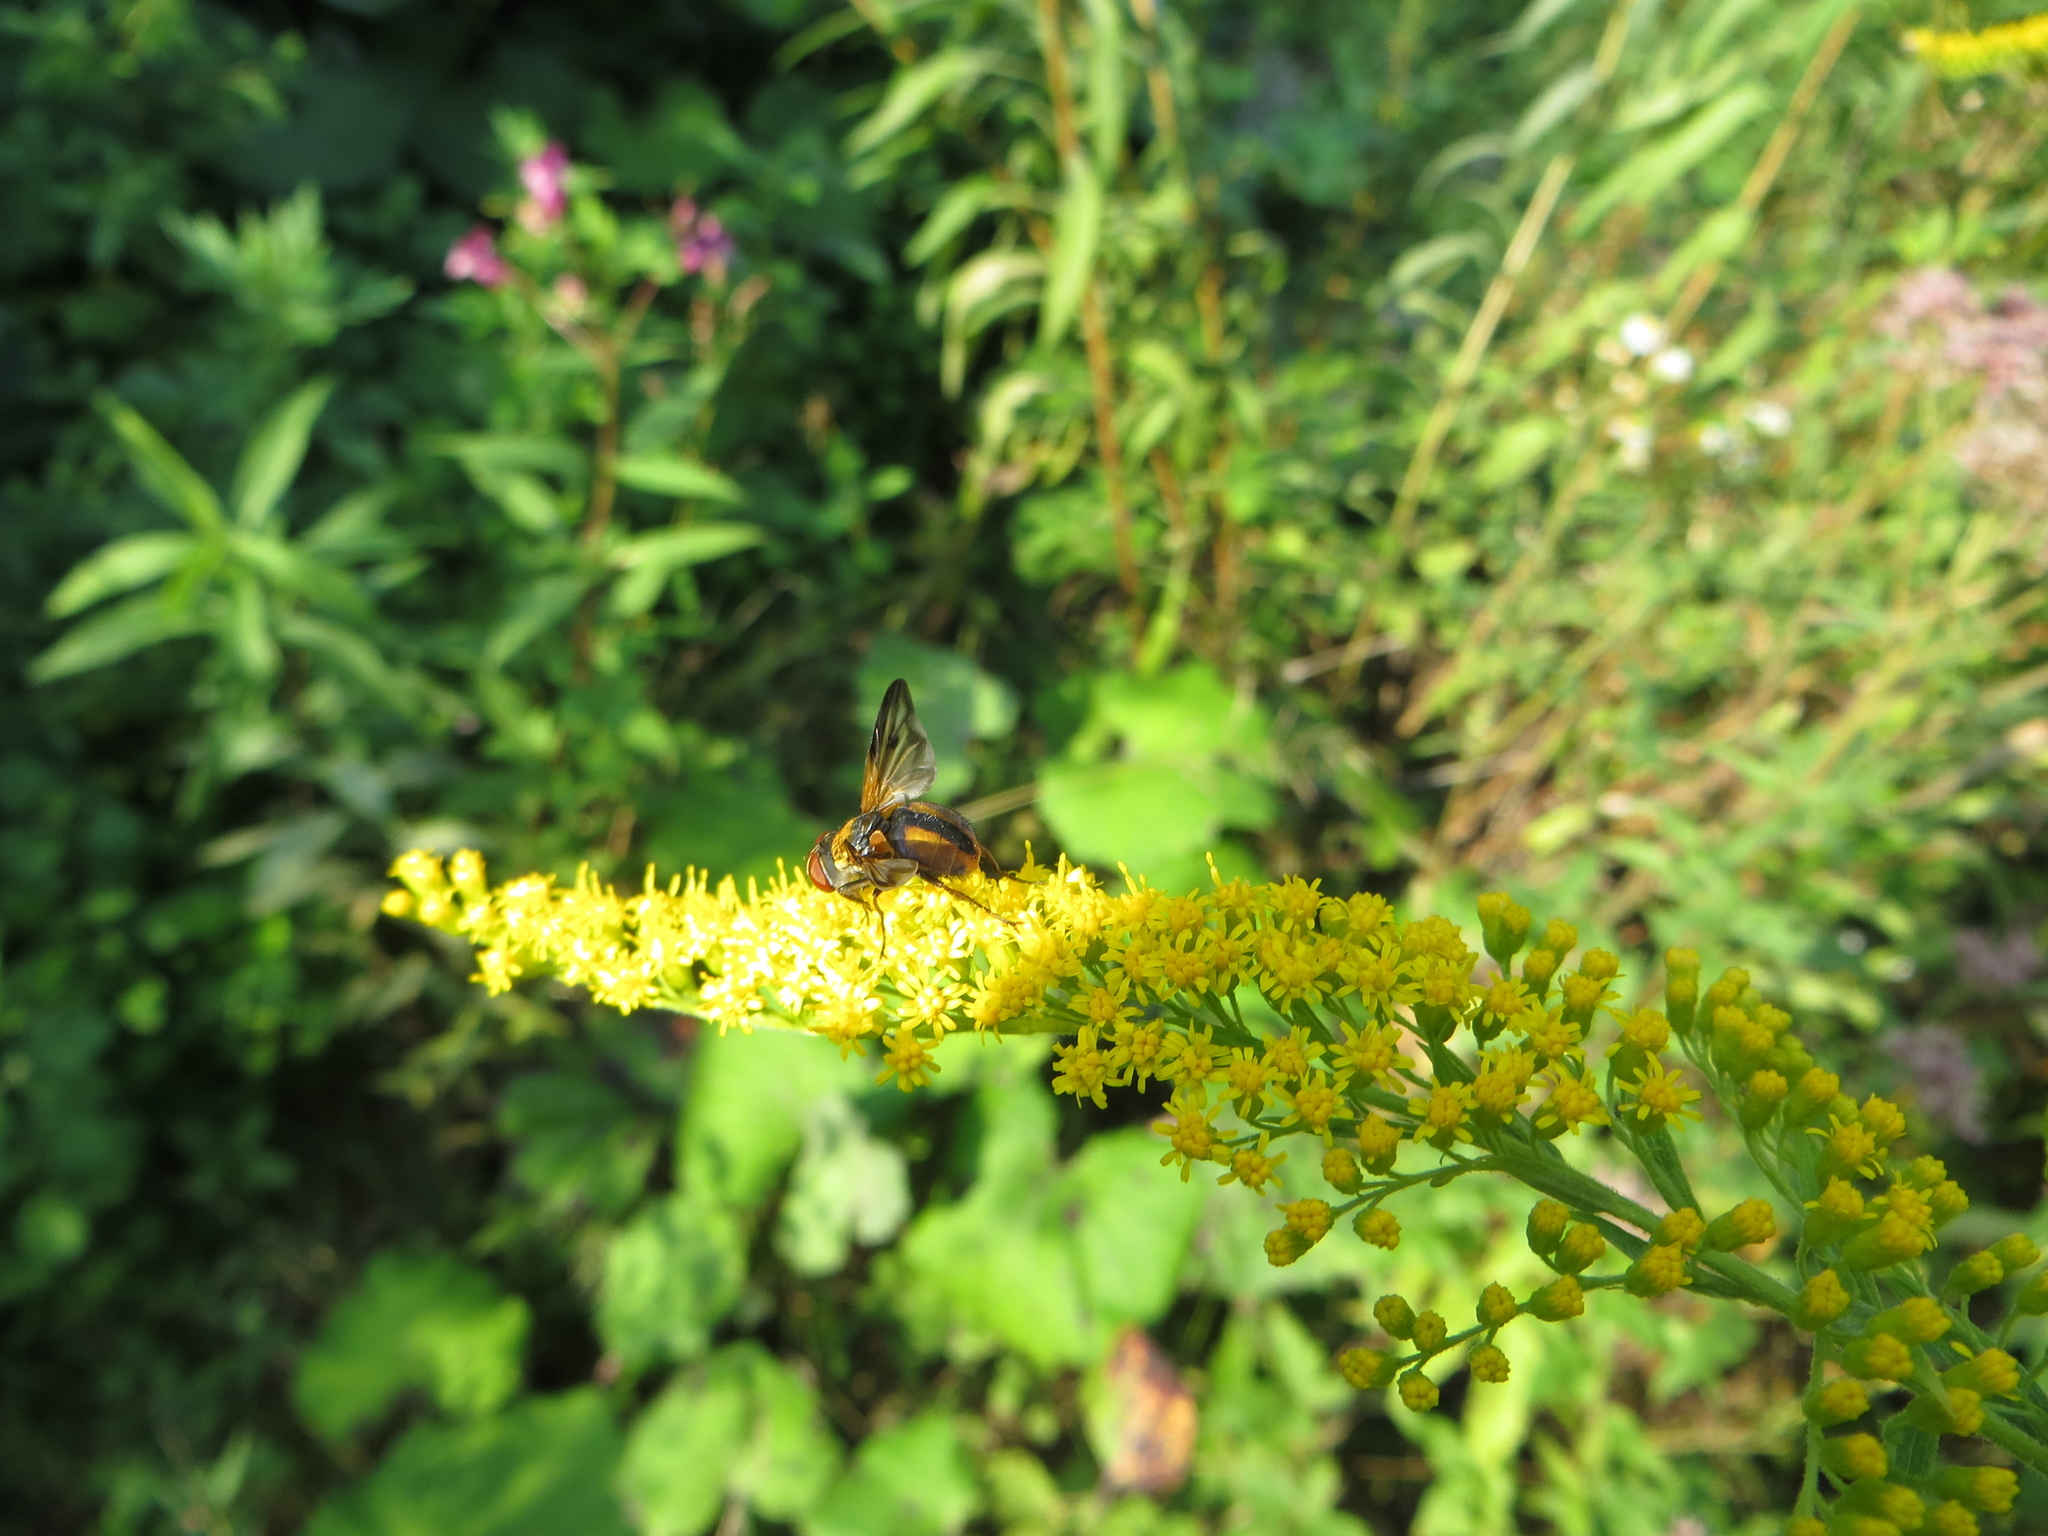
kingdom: Animalia
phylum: Arthropoda
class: Insecta
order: Diptera
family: Tachinidae
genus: Ectophasia
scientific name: Ectophasia crassipennis
